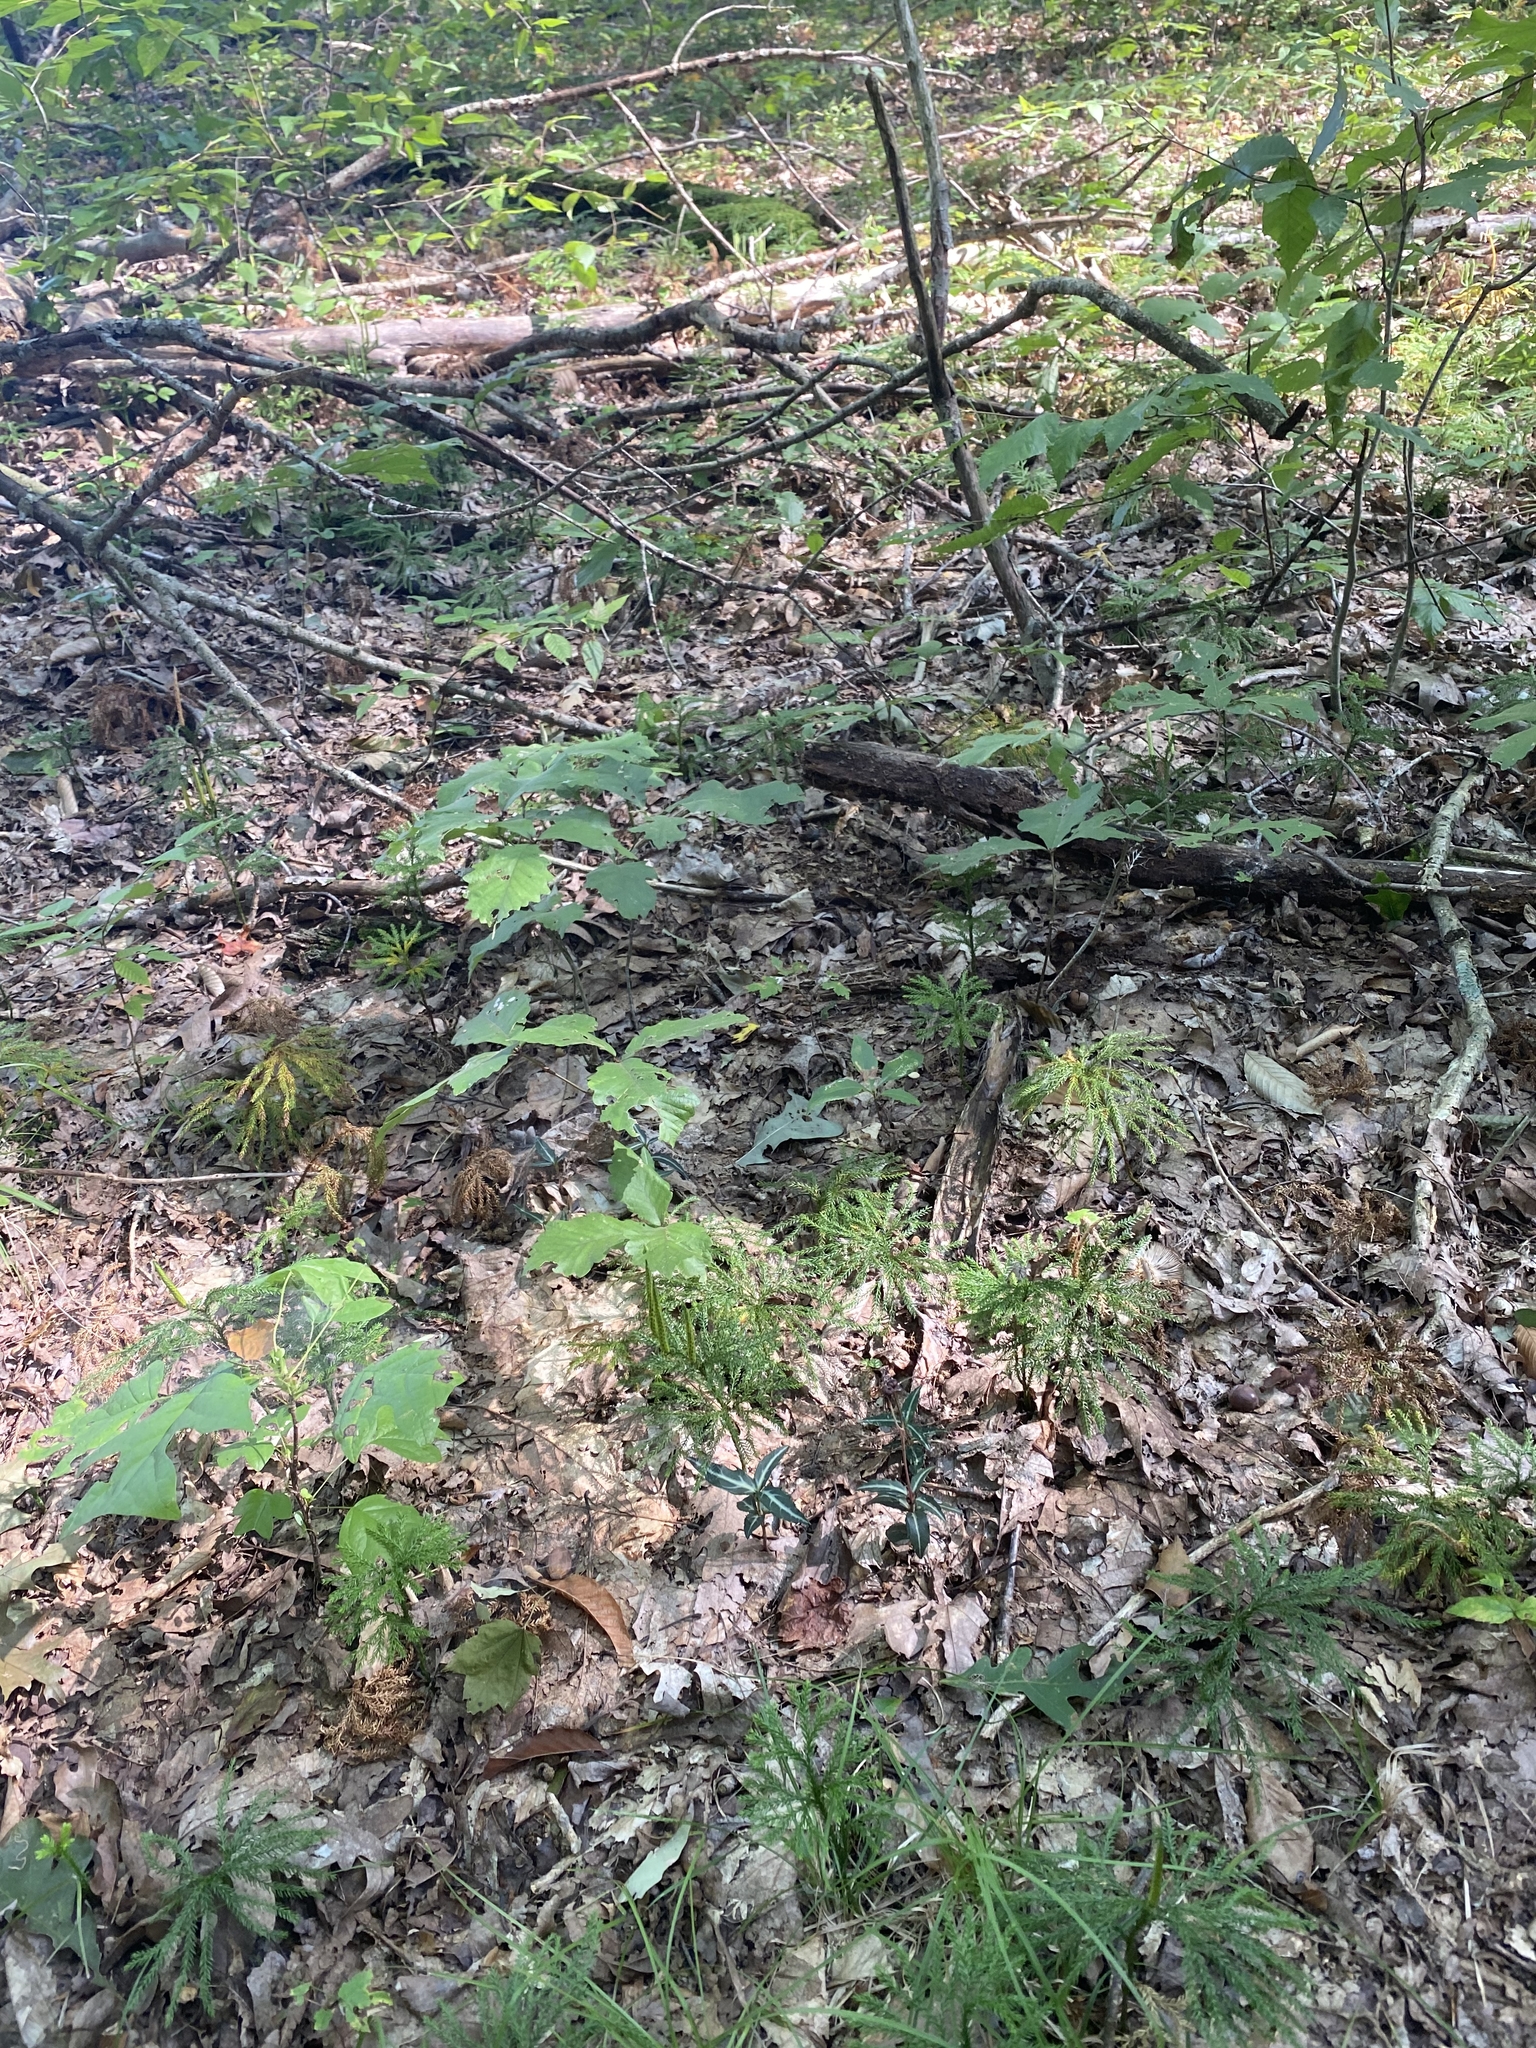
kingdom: Plantae
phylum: Tracheophyta
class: Magnoliopsida
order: Ericales
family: Ericaceae
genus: Chimaphila
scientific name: Chimaphila maculata
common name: Spotted pipsissewa
